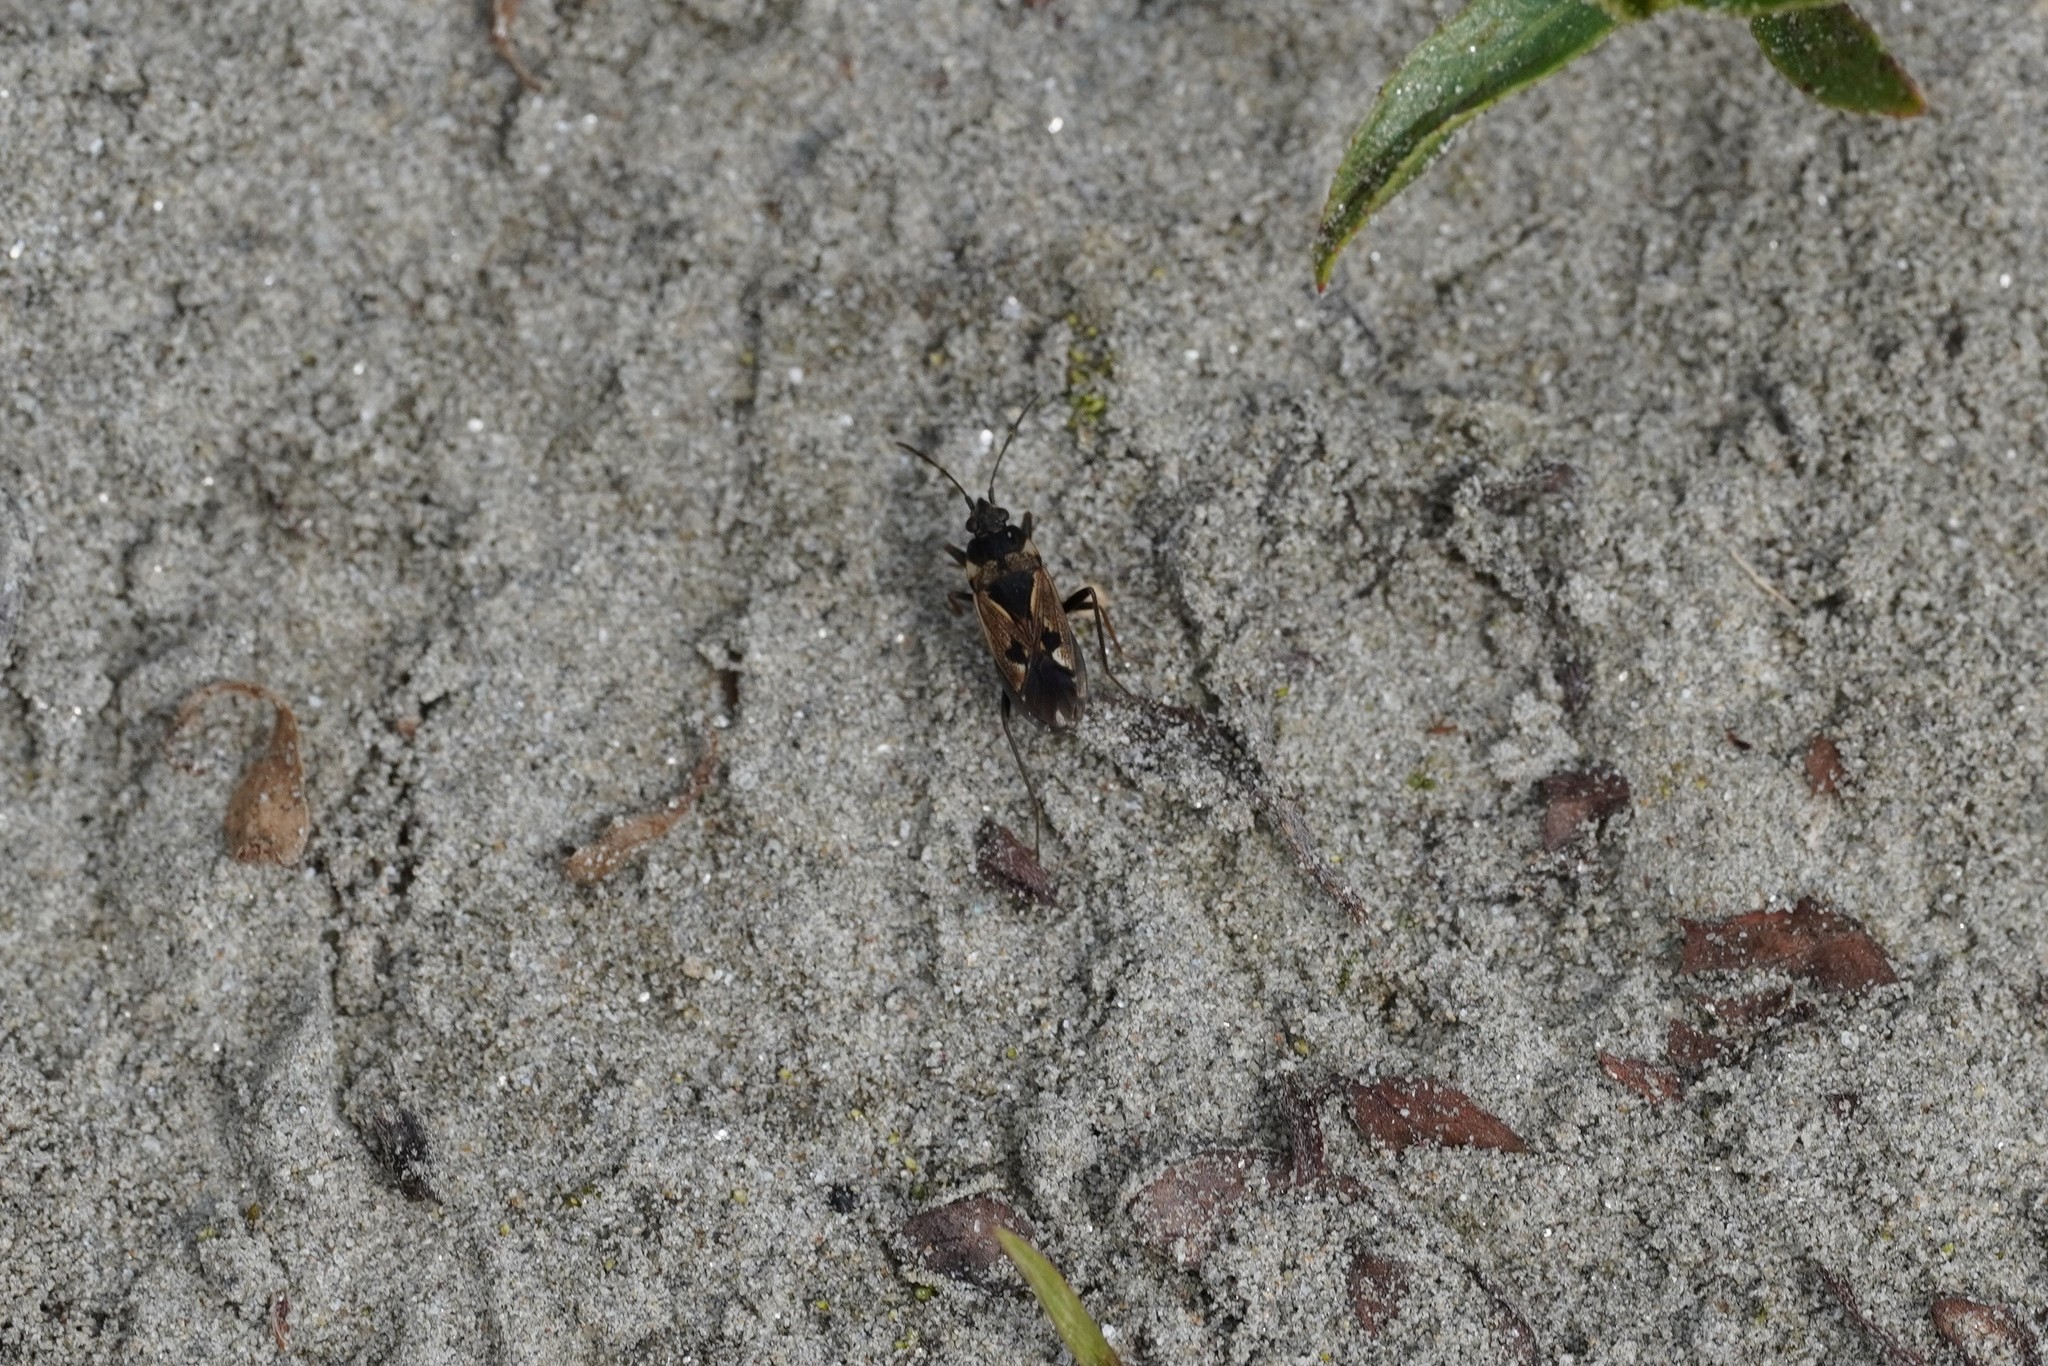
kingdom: Animalia
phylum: Arthropoda
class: Insecta
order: Hemiptera
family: Rhyparochromidae
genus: Rhyparochromus
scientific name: Rhyparochromus vulgaris
